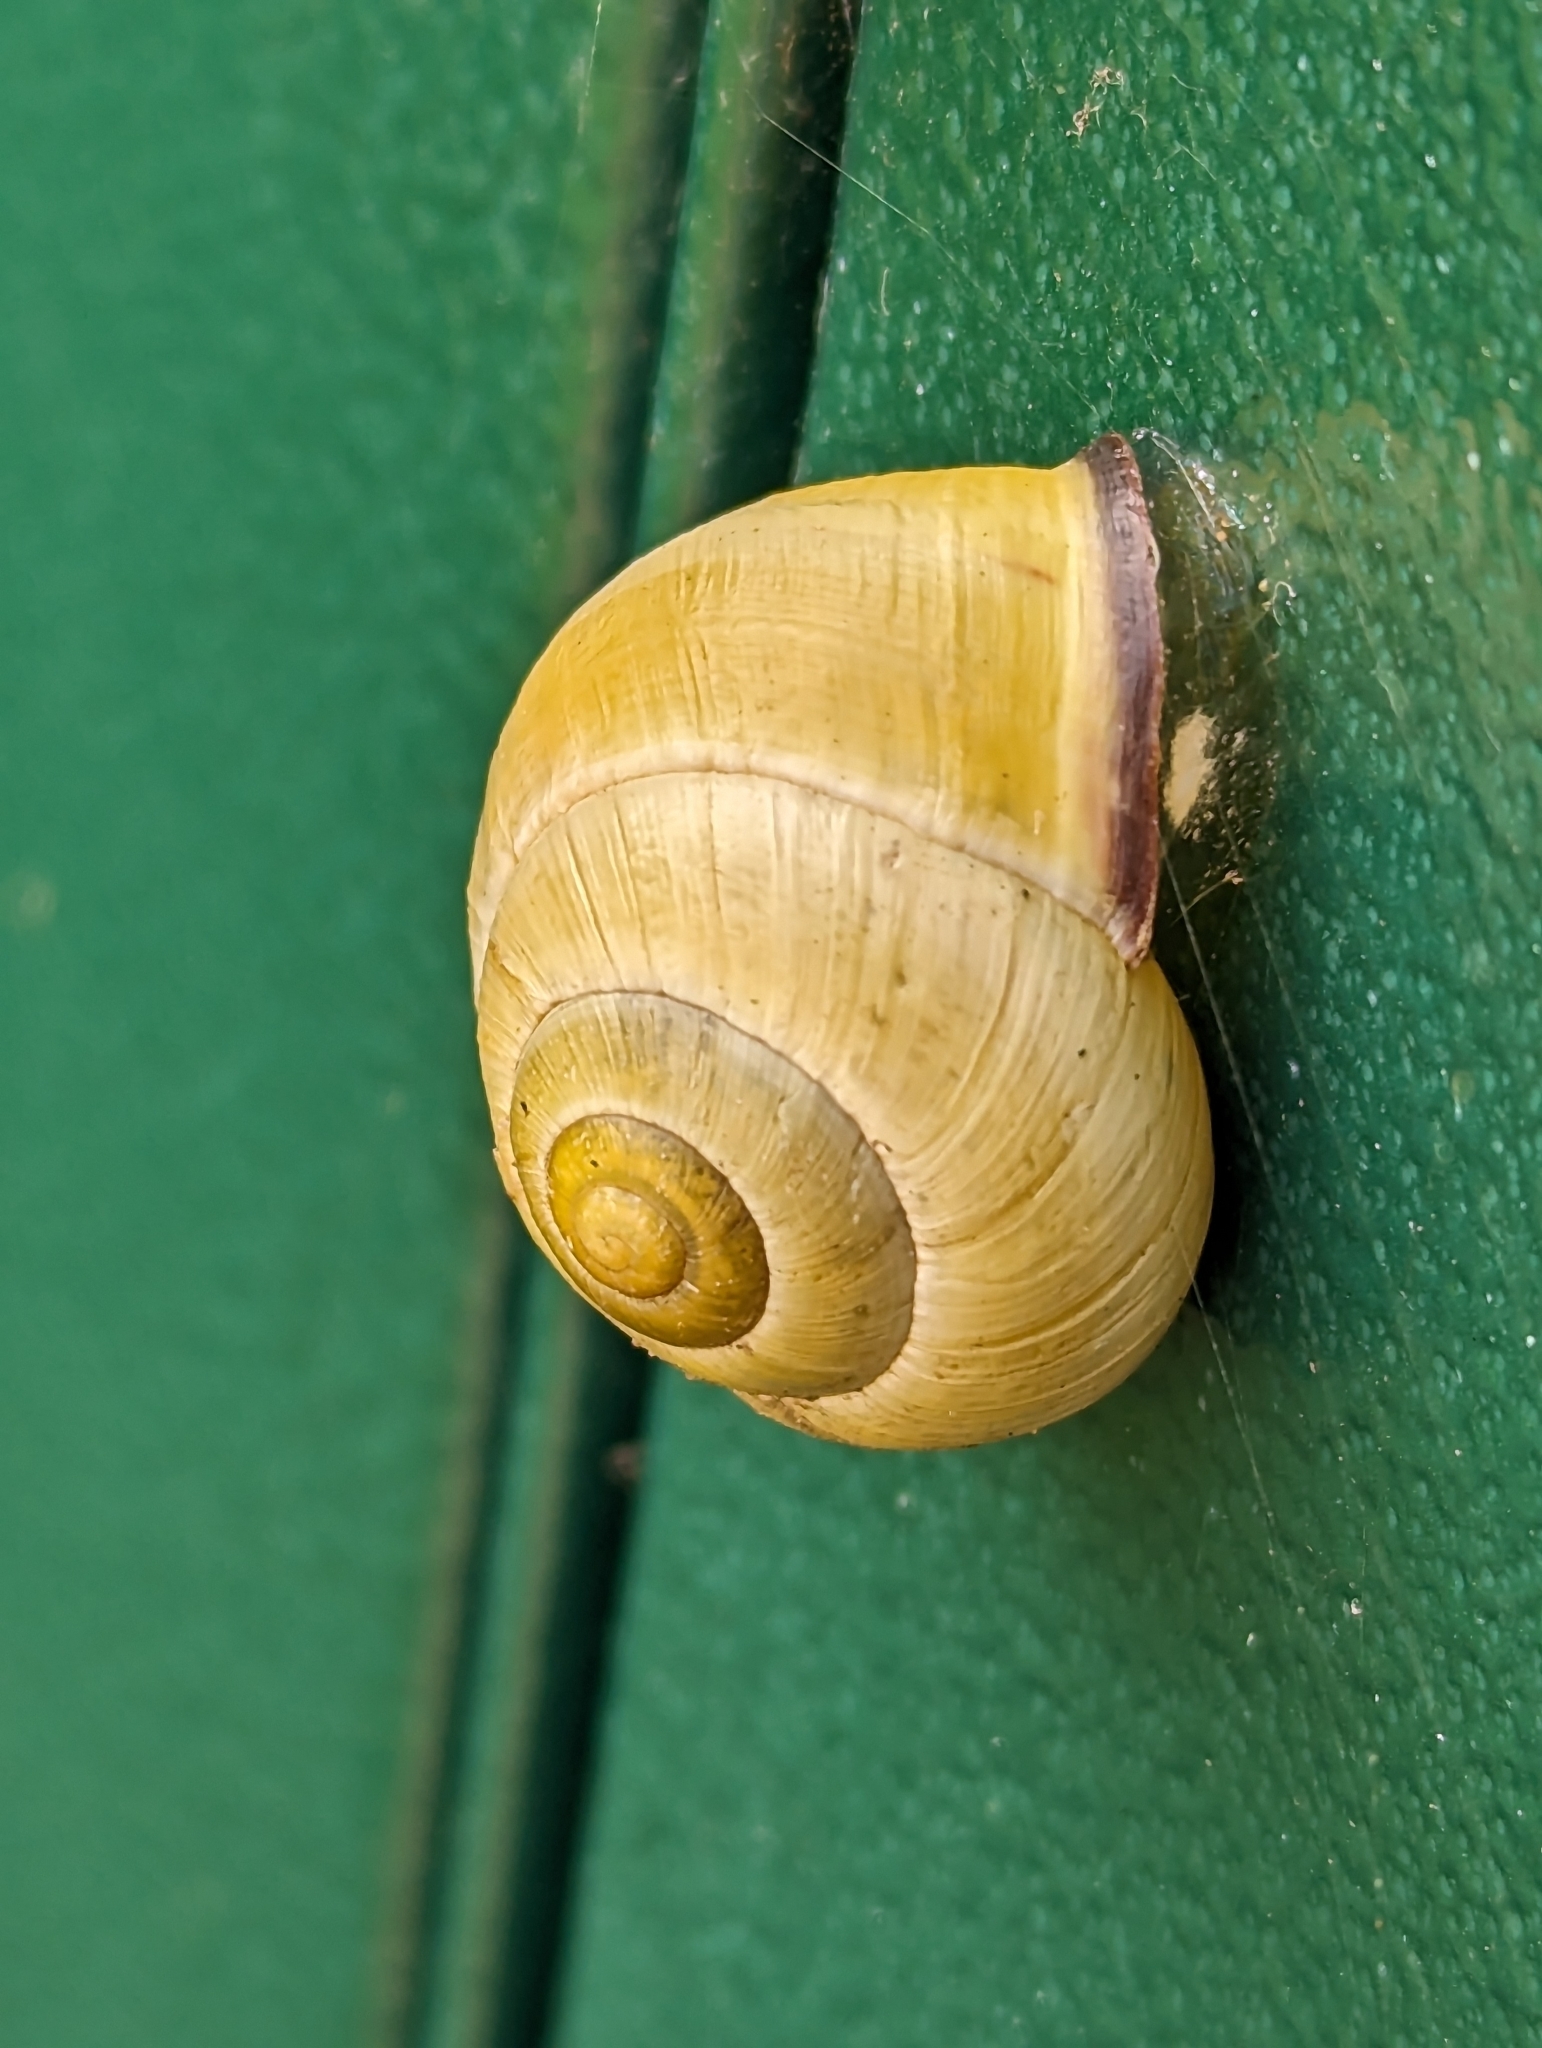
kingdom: Animalia
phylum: Mollusca
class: Gastropoda
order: Stylommatophora
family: Helicidae
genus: Cepaea
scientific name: Cepaea nemoralis
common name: Grovesnail
